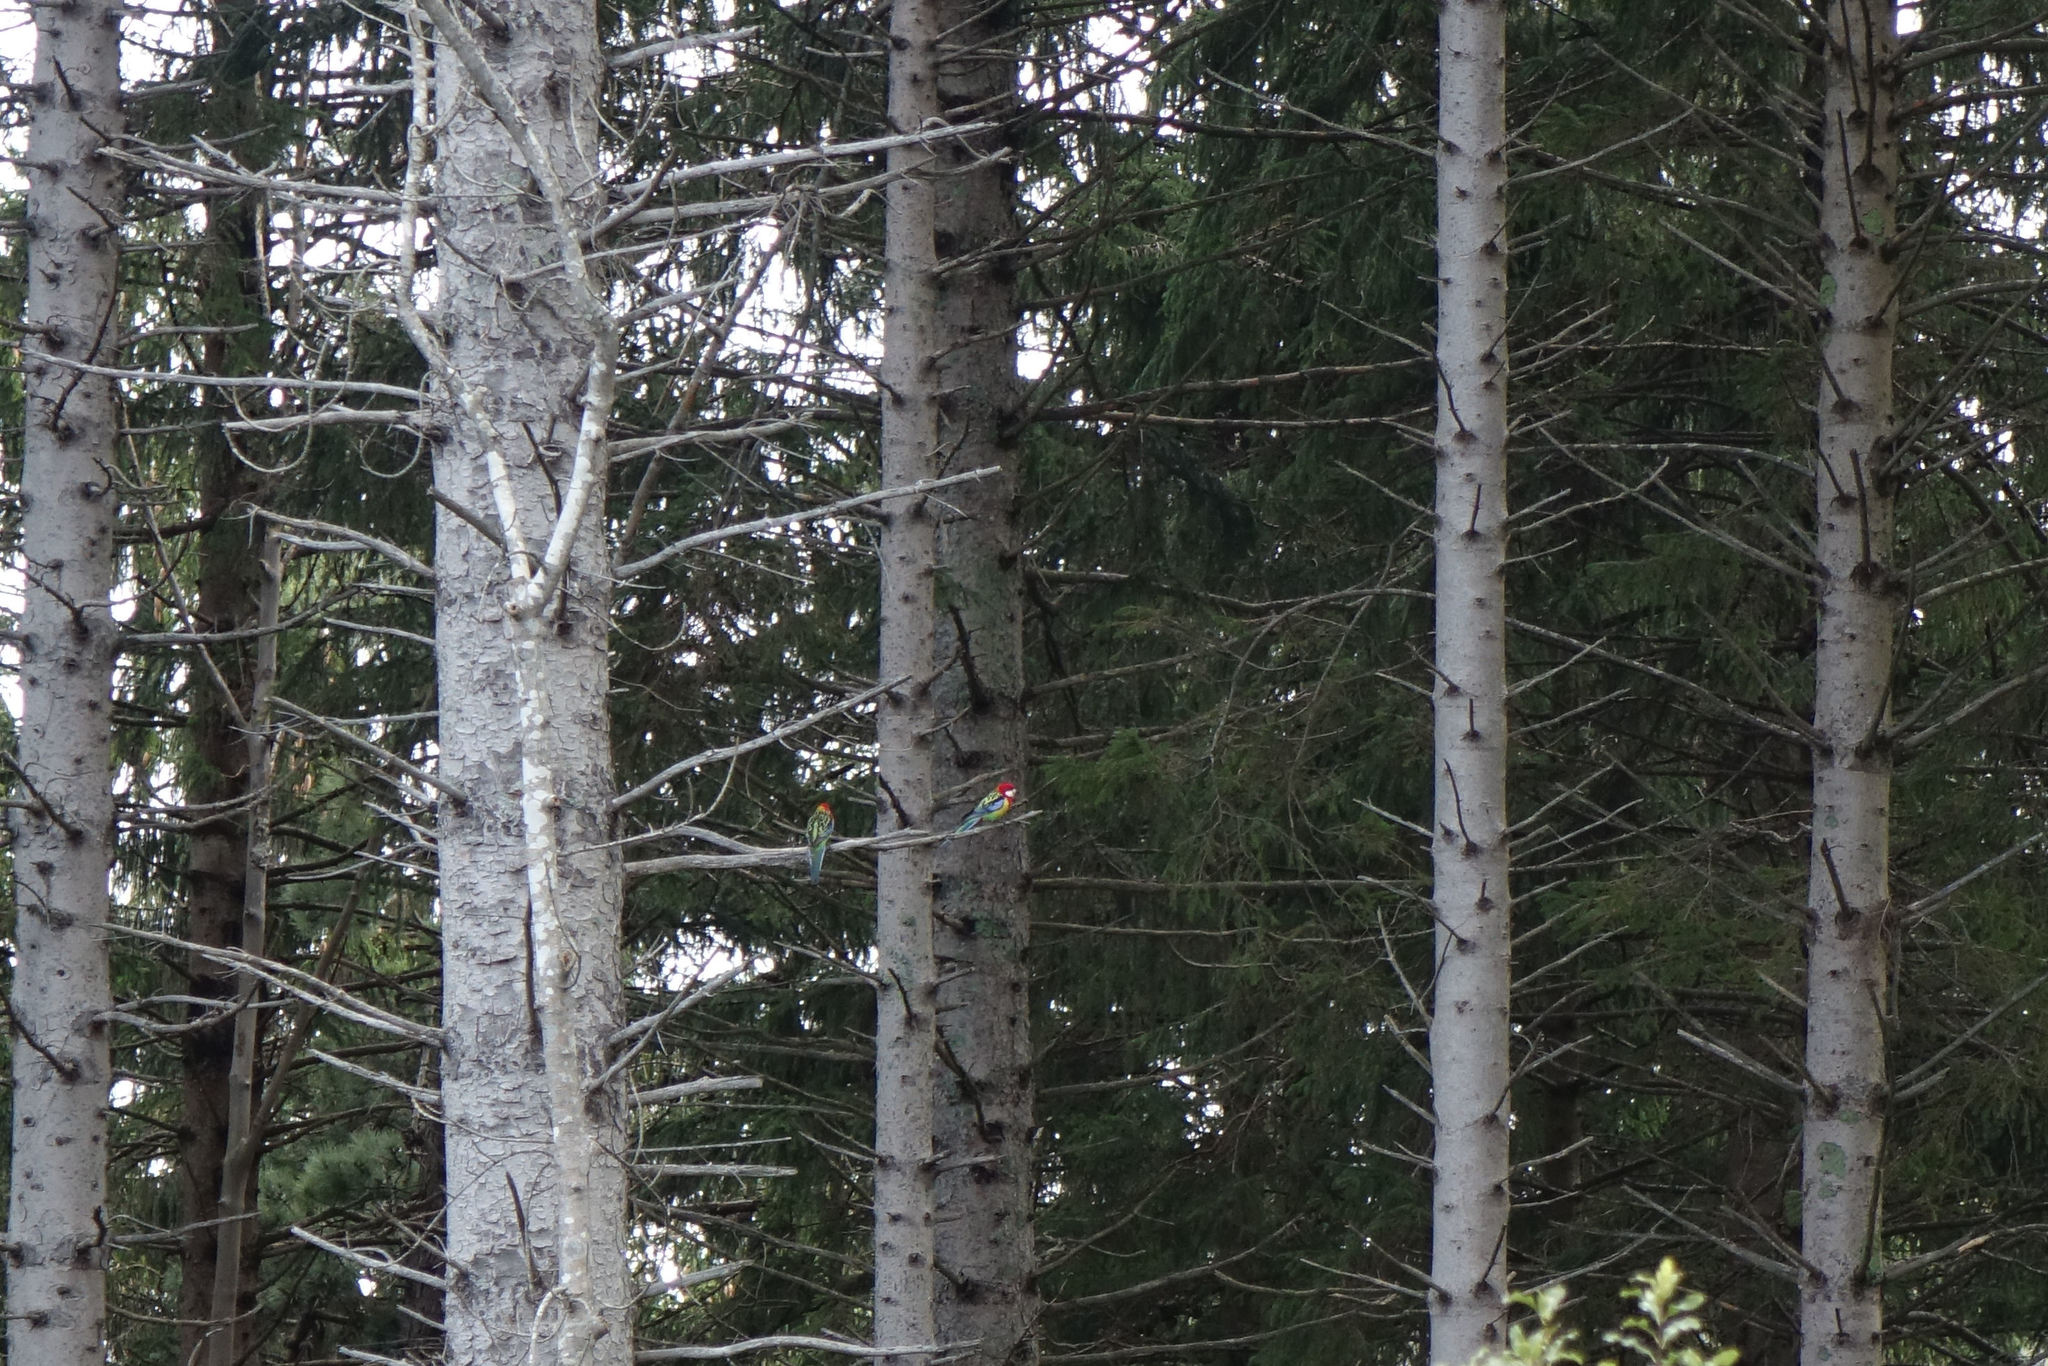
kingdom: Animalia
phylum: Chordata
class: Aves
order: Psittaciformes
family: Psittacidae
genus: Platycercus
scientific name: Platycercus eximius
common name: Eastern rosella
